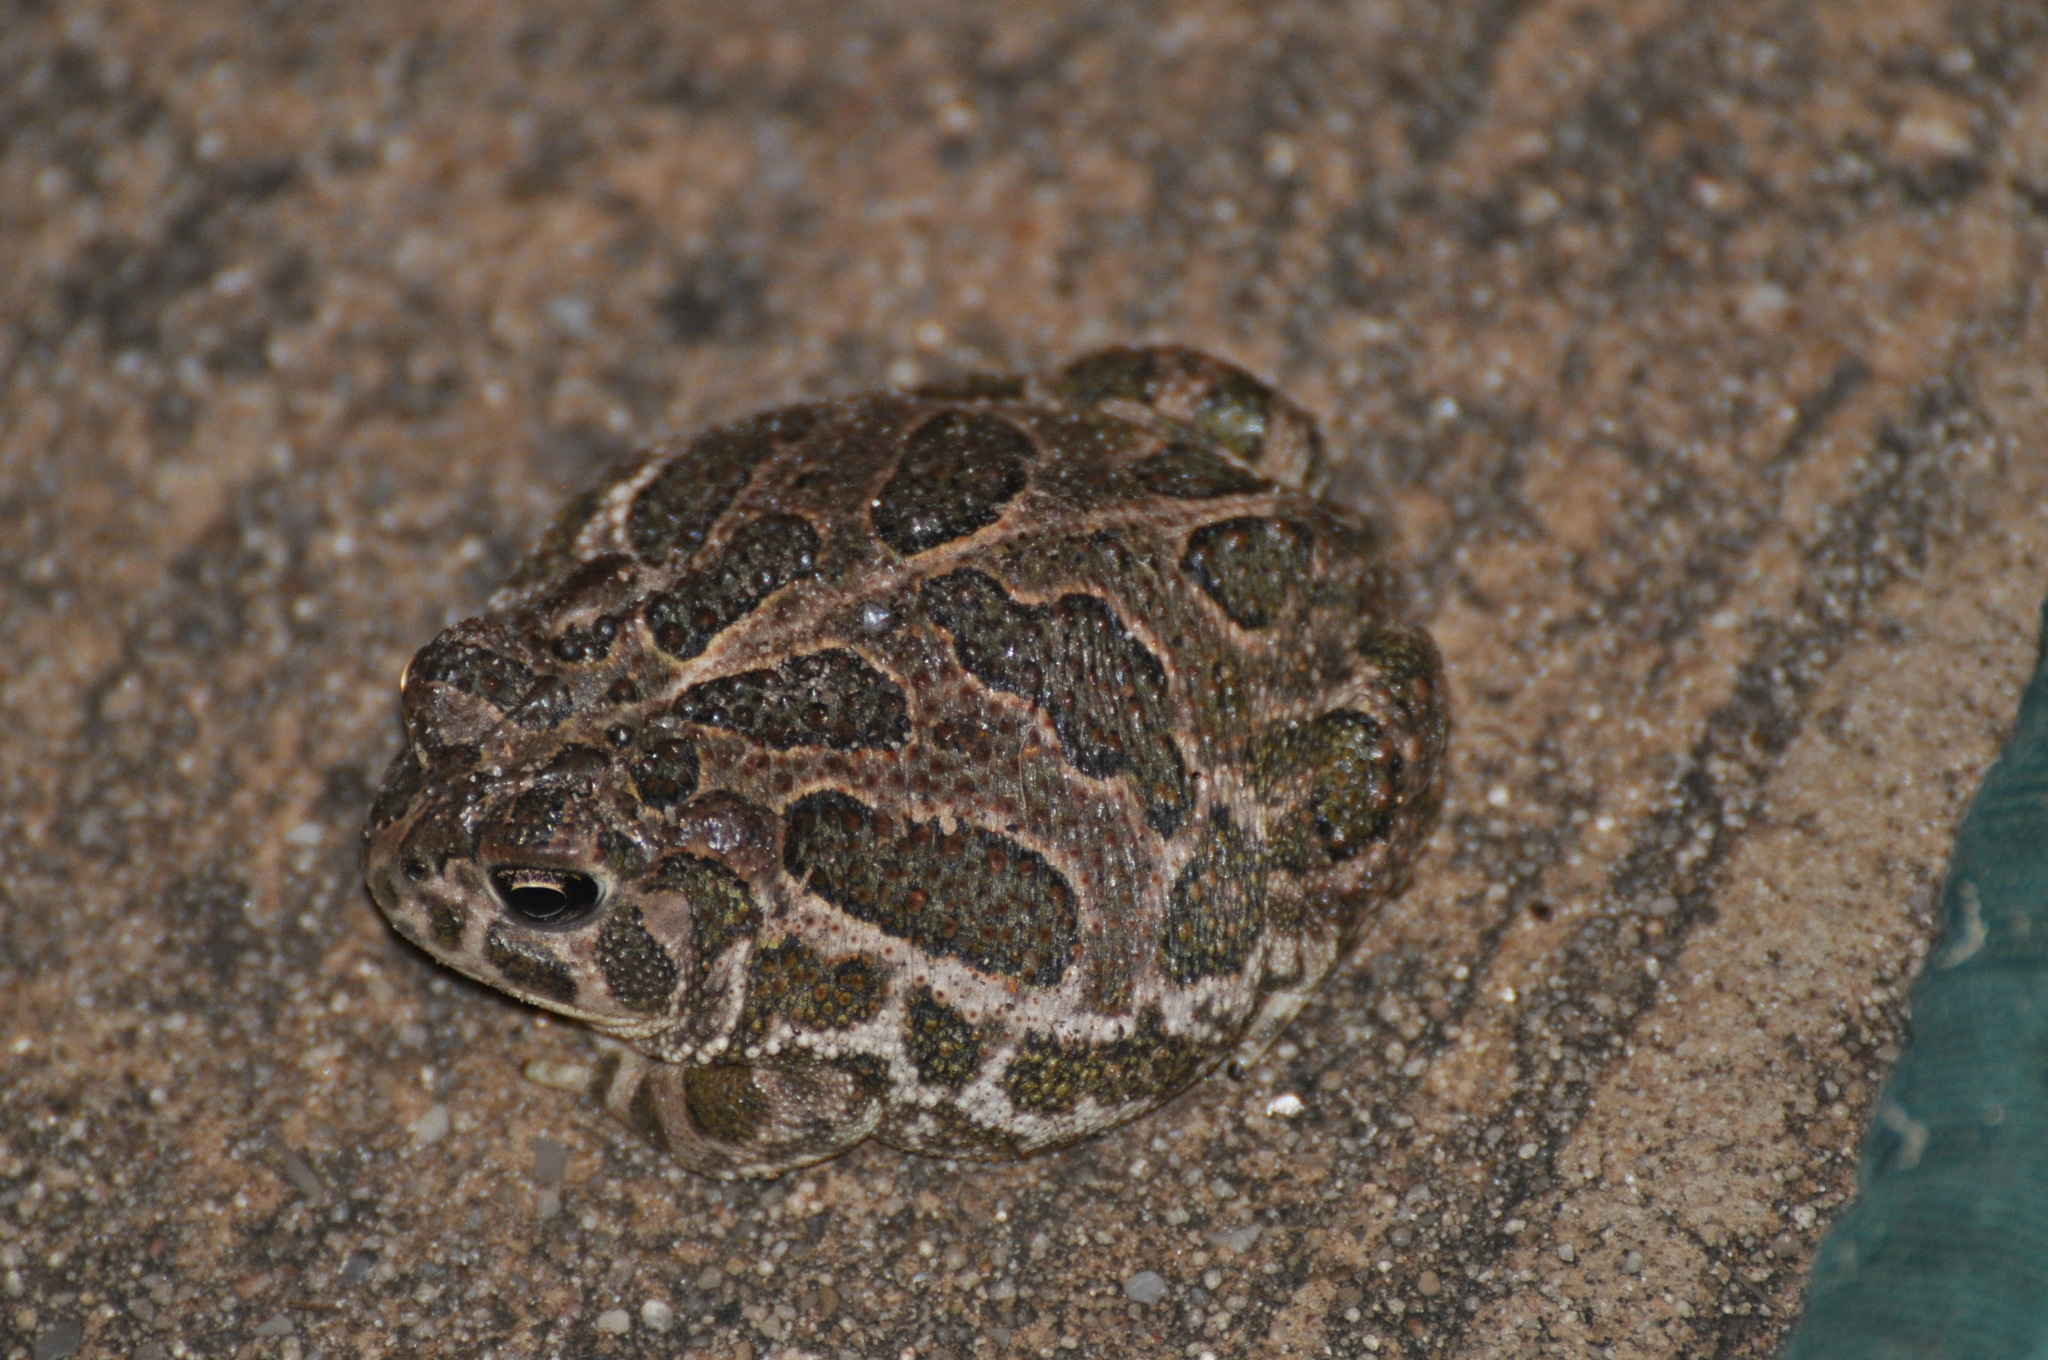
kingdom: Animalia
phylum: Chordata
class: Amphibia
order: Anura
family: Bufonidae
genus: Anaxyrus
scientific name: Anaxyrus cognatus
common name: Great plains toad
